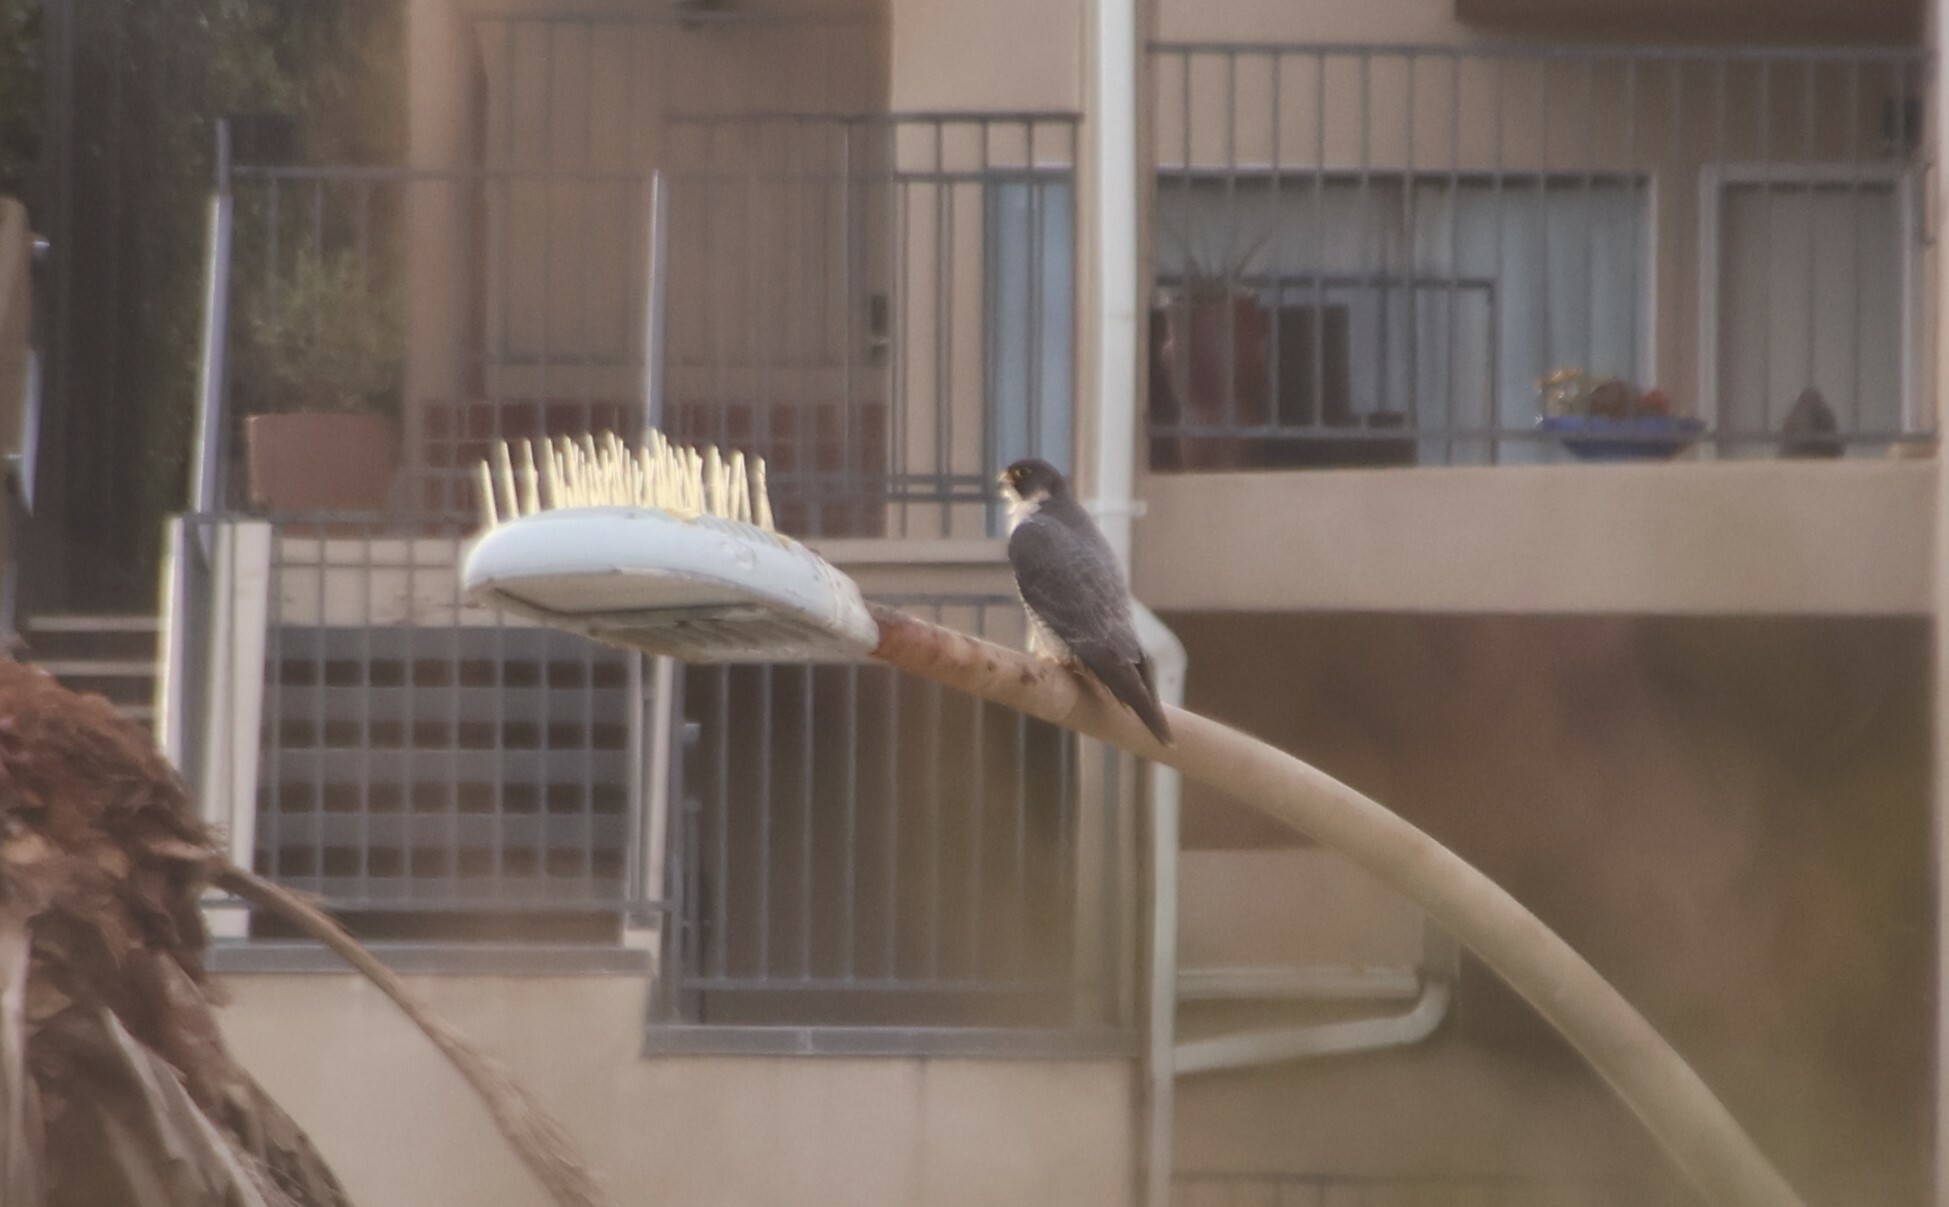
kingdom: Animalia
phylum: Chordata
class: Aves
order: Falconiformes
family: Falconidae
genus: Falco
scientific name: Falco peregrinus
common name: Peregrine falcon
